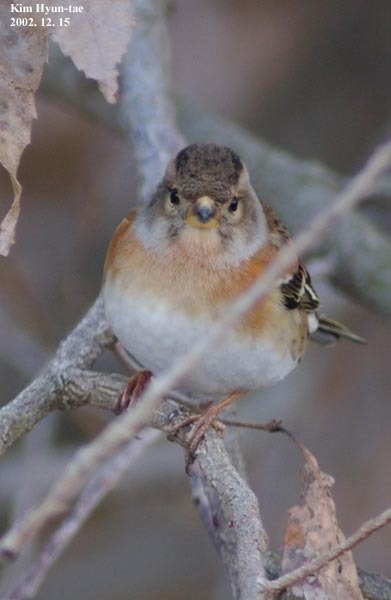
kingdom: Animalia
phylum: Chordata
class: Aves
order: Passeriformes
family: Fringillidae
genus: Fringilla
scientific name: Fringilla montifringilla
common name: Brambling
